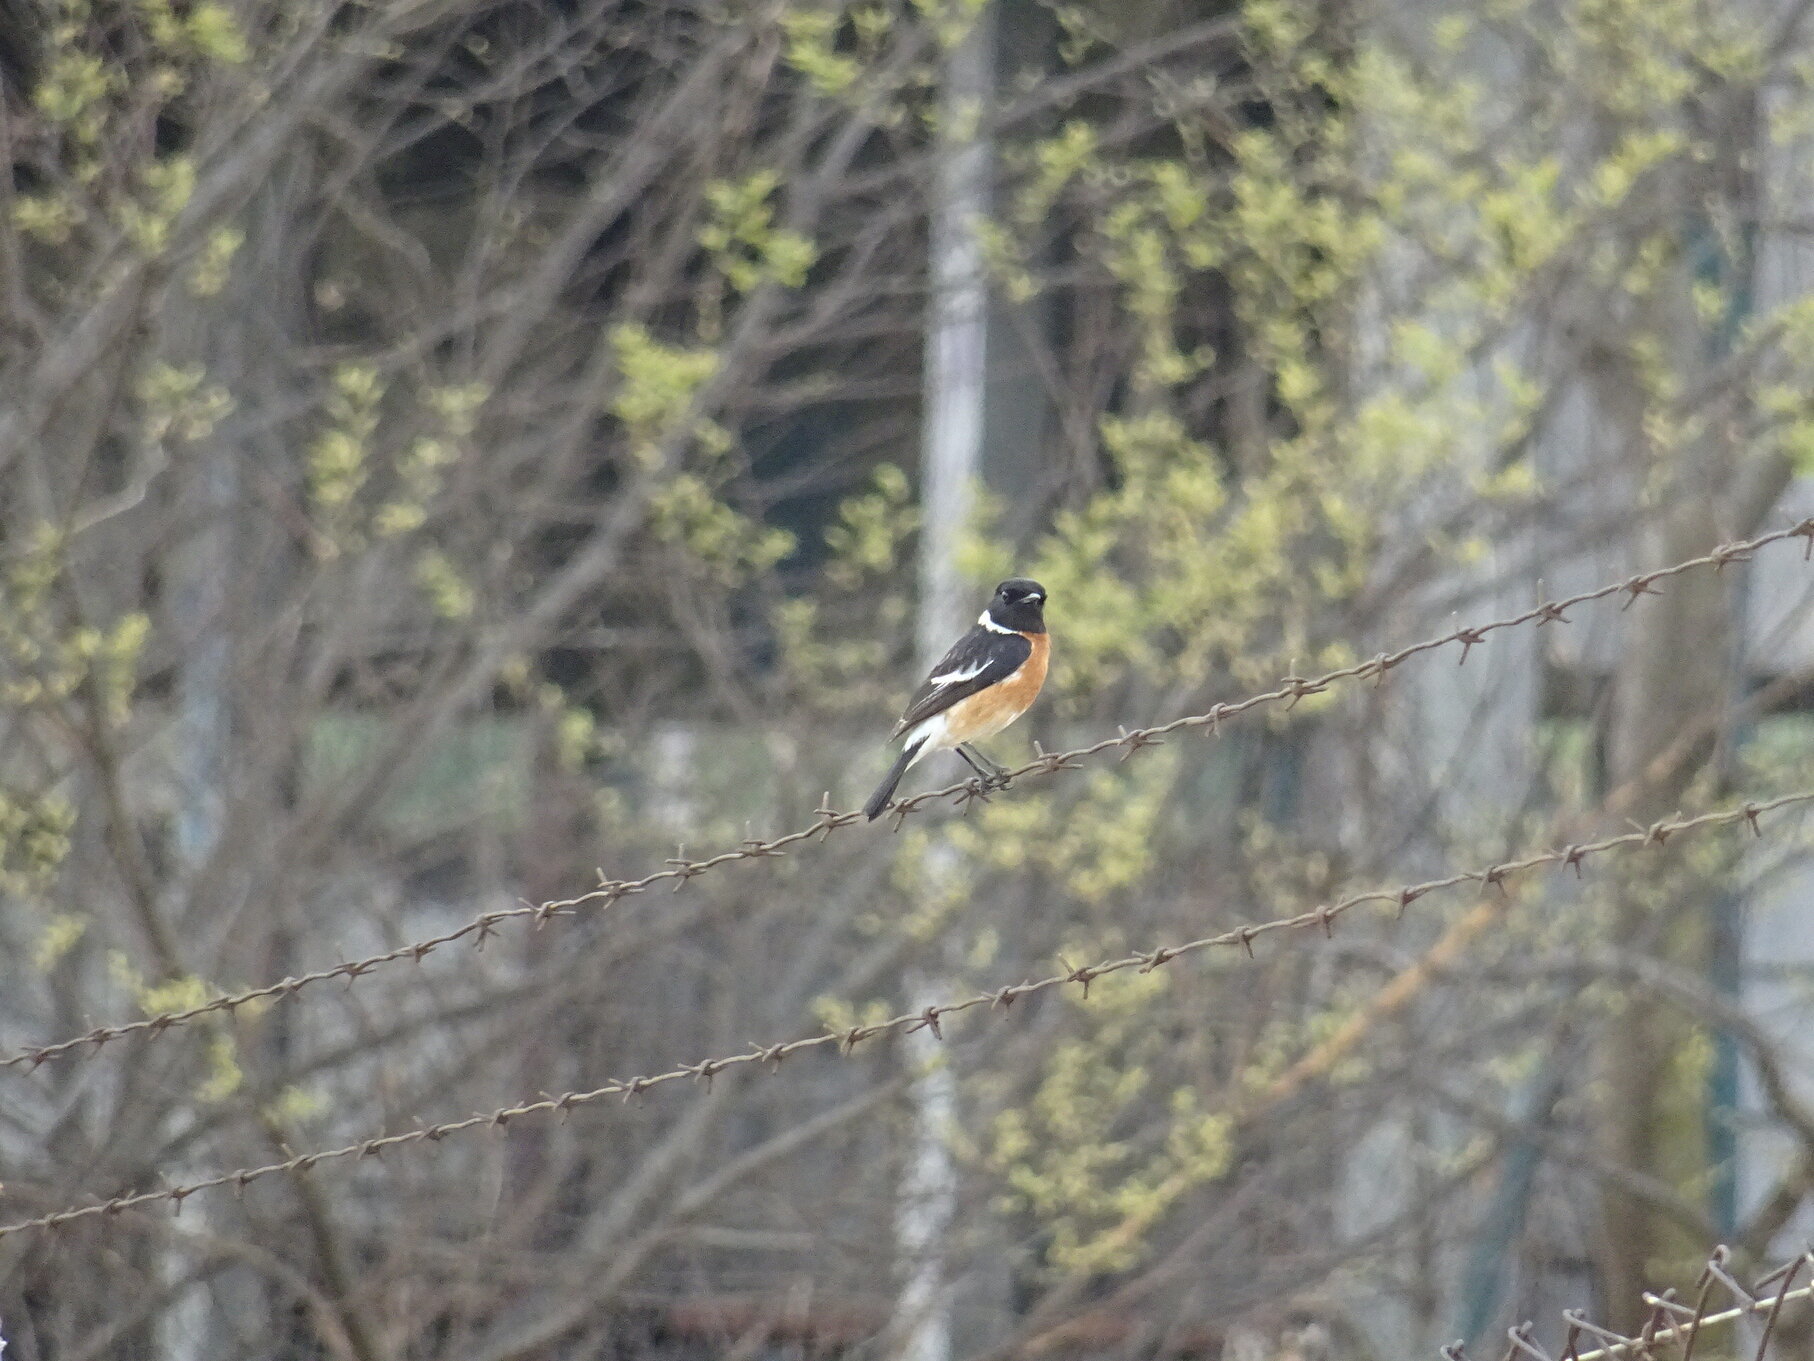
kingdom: Animalia
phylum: Chordata
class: Aves
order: Passeriformes
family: Muscicapidae
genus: Saxicola
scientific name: Saxicola torquatus
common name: African stonechat
